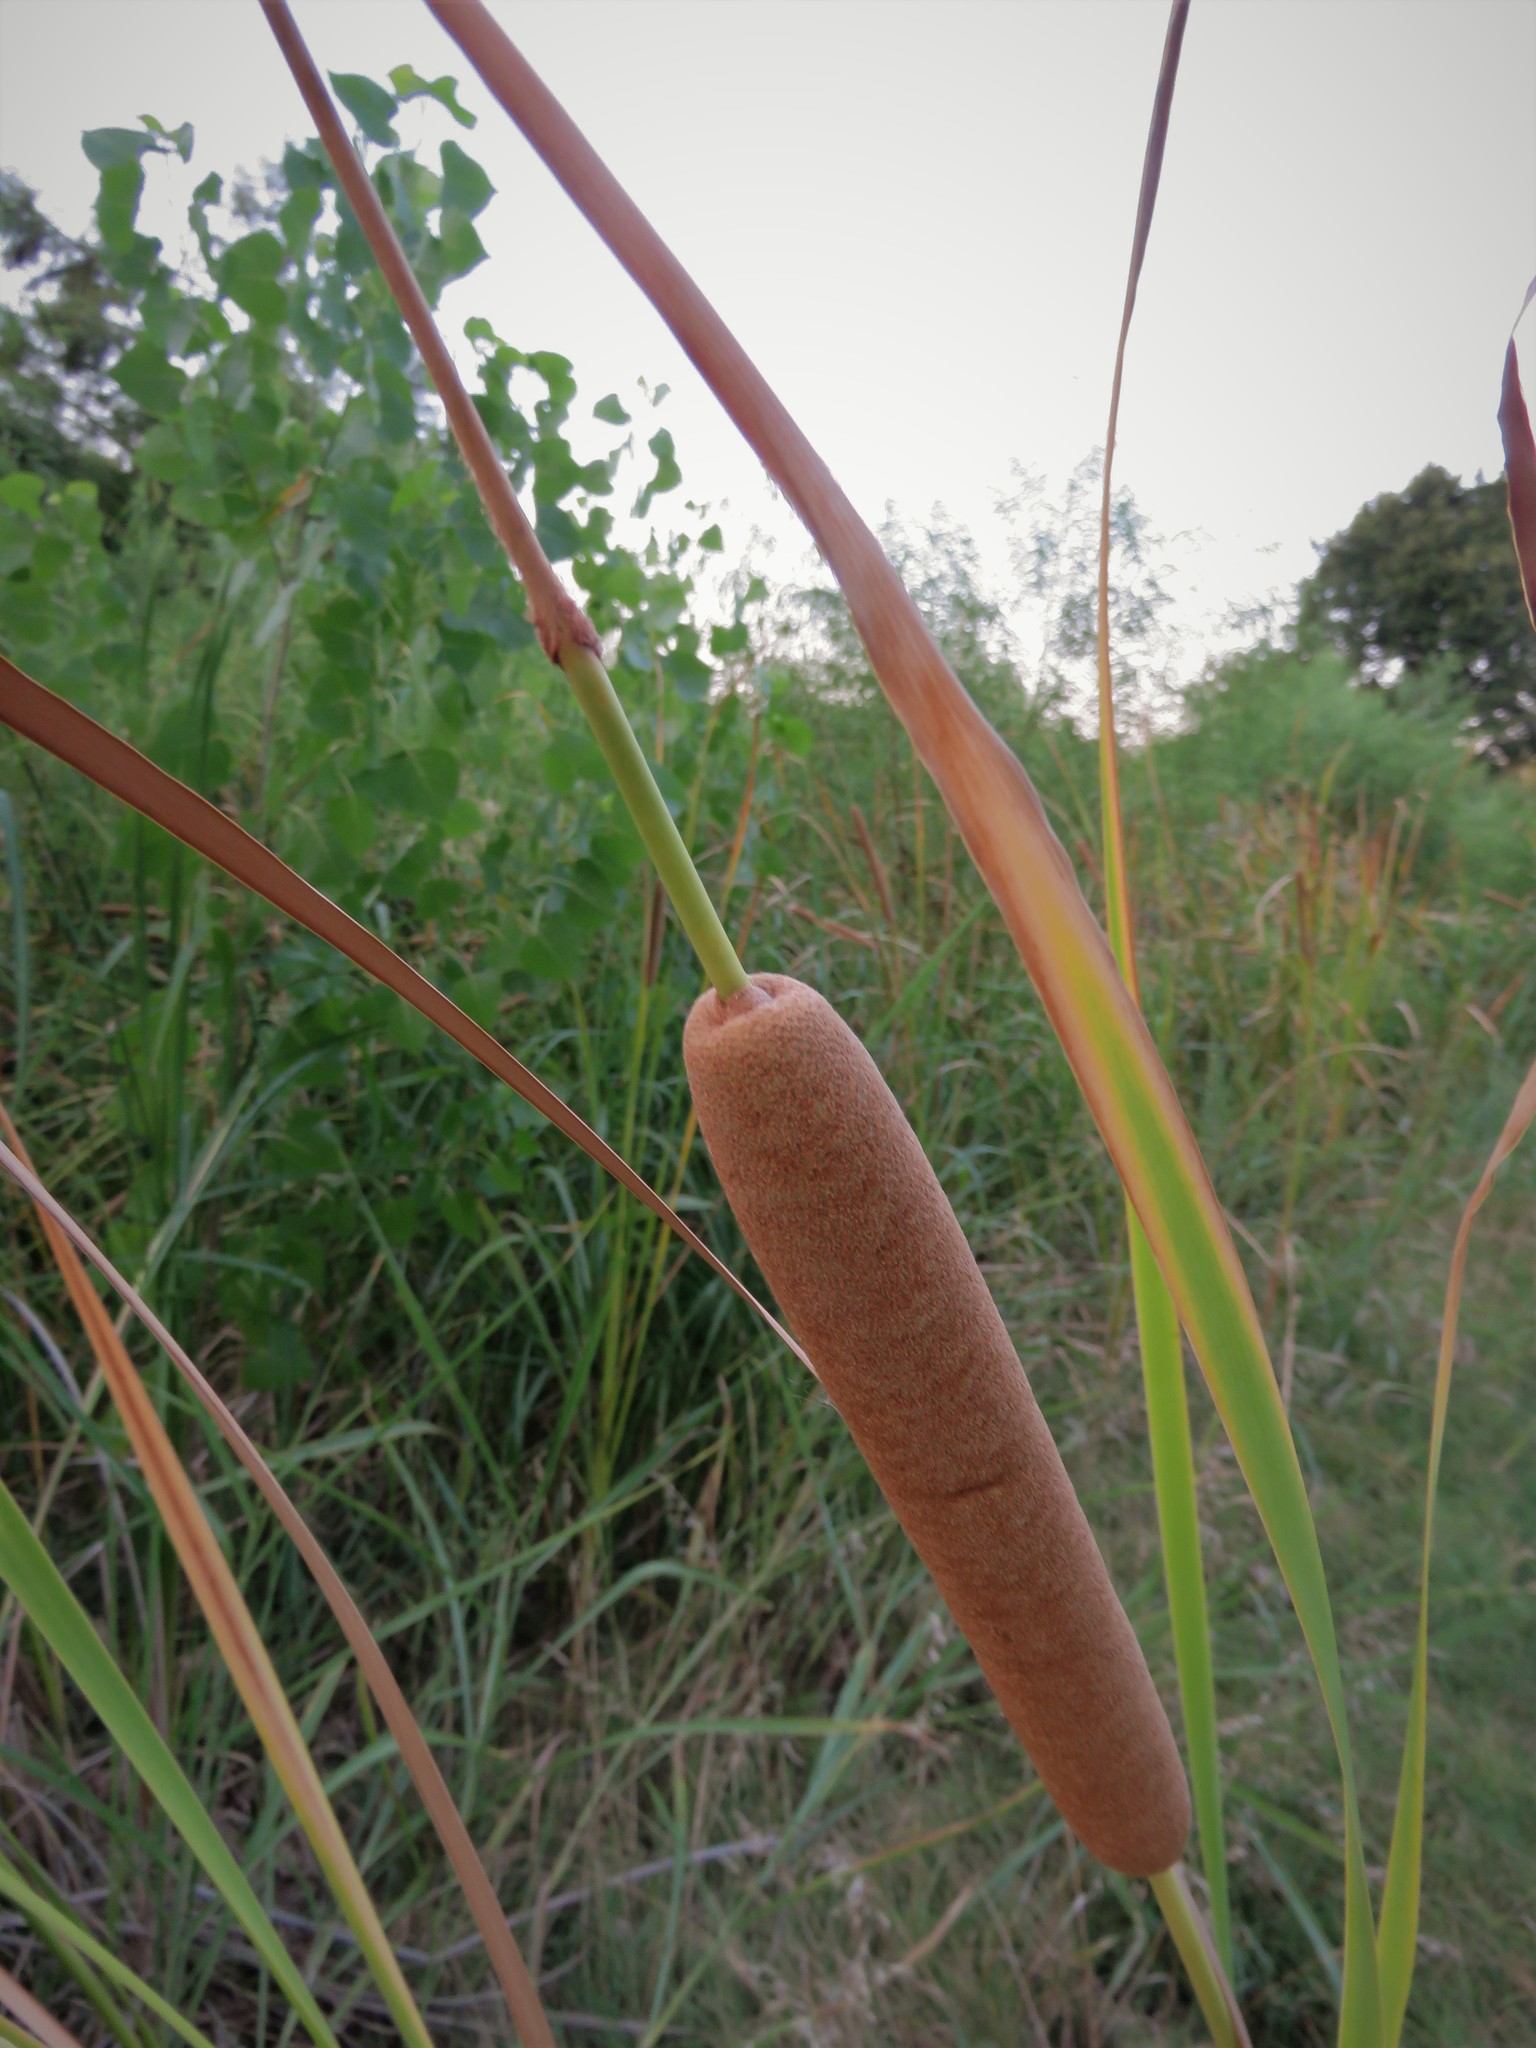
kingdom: Plantae
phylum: Tracheophyta
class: Liliopsida
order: Poales
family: Typhaceae
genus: Typha
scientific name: Typha domingensis
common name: Southern cattail
